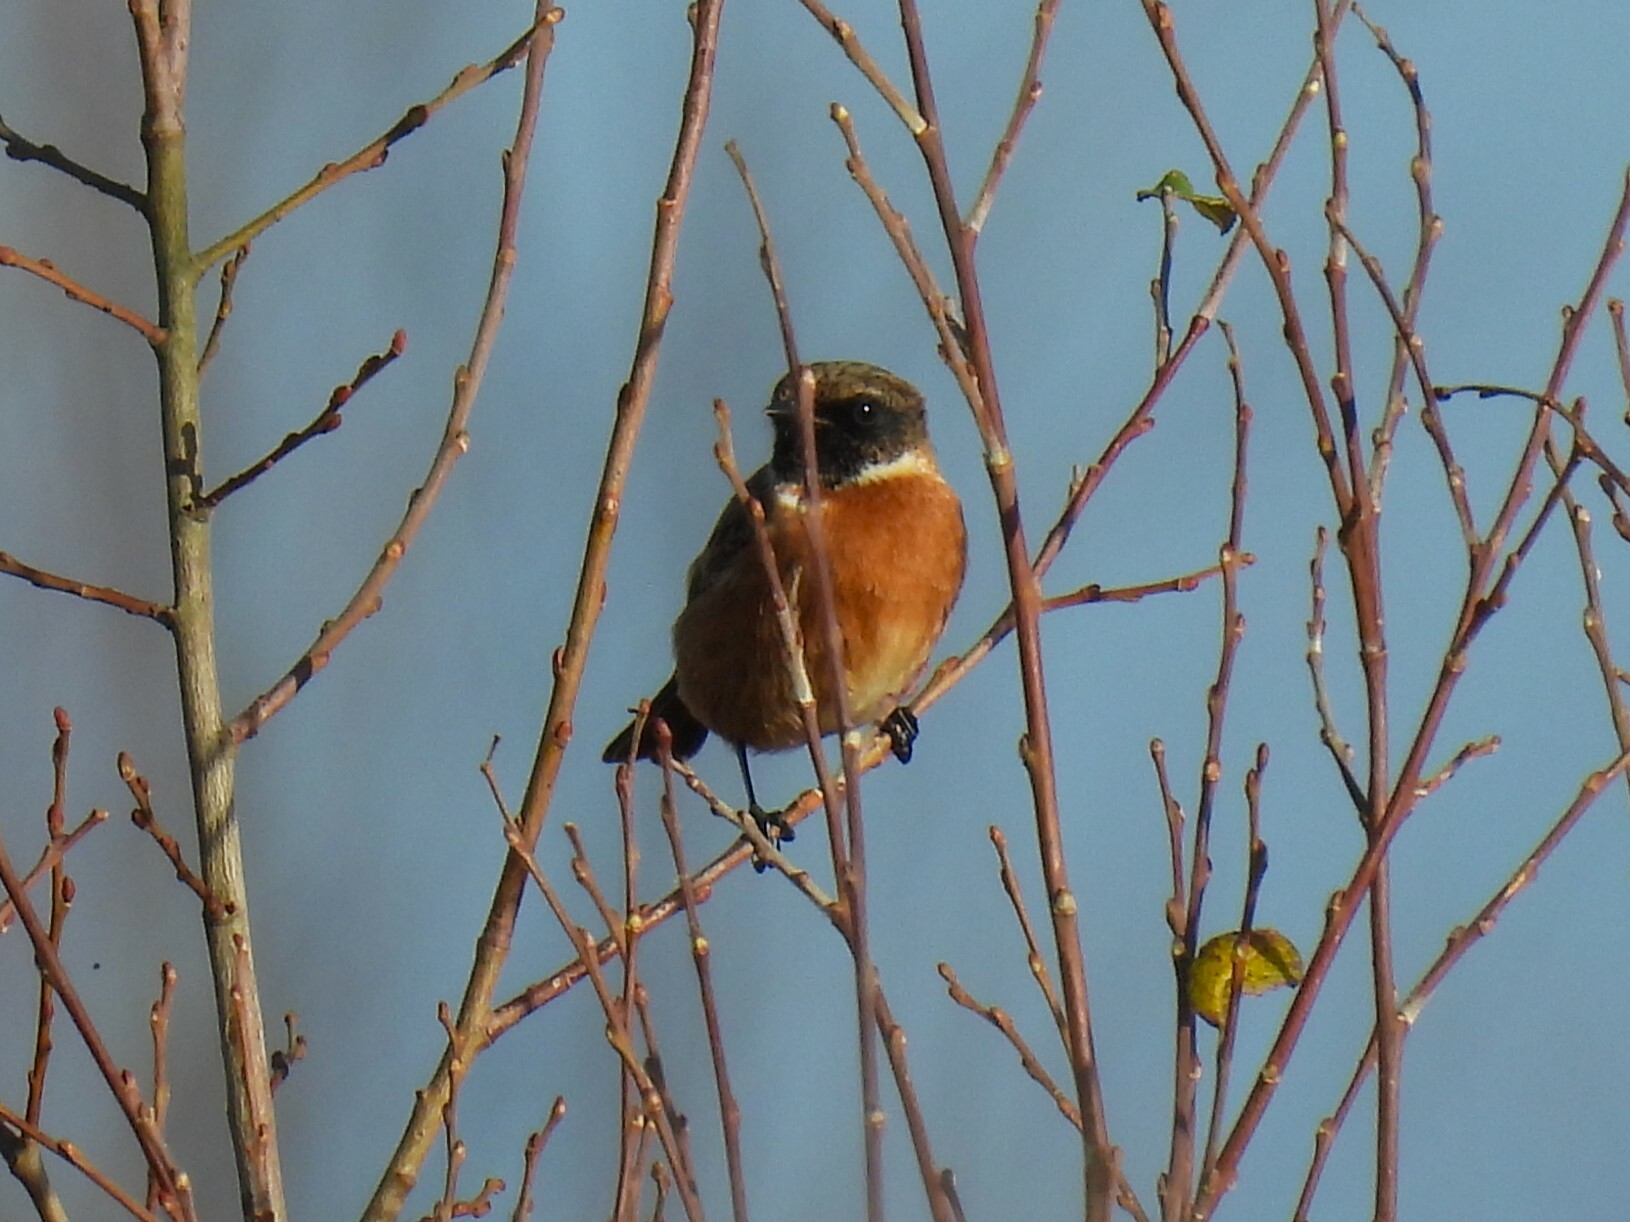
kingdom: Animalia
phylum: Chordata
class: Aves
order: Passeriformes
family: Muscicapidae
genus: Saxicola
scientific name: Saxicola rubicola
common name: European stonechat
